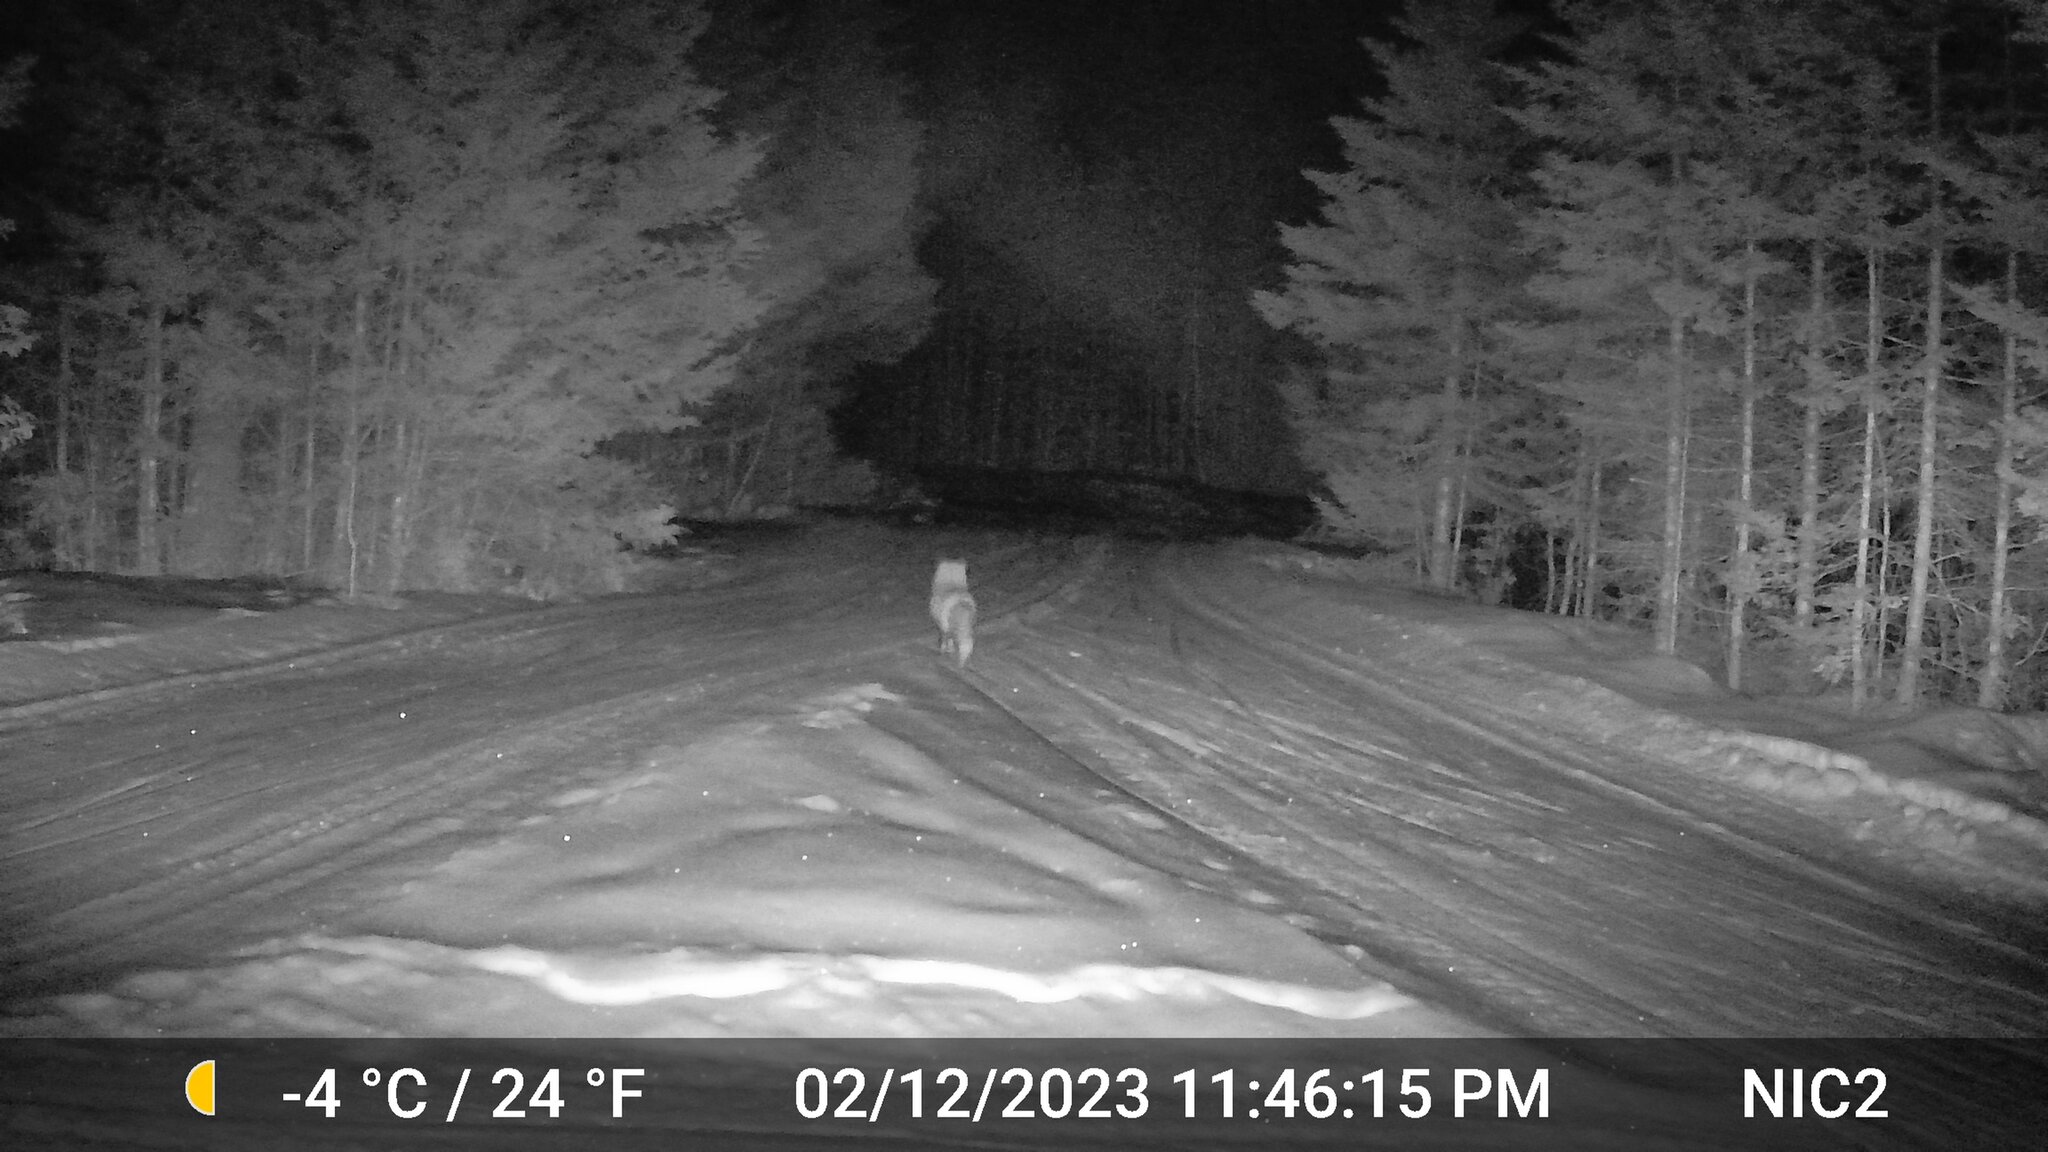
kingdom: Animalia
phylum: Chordata
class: Mammalia
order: Carnivora
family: Canidae
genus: Vulpes
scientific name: Vulpes vulpes
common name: Red fox
